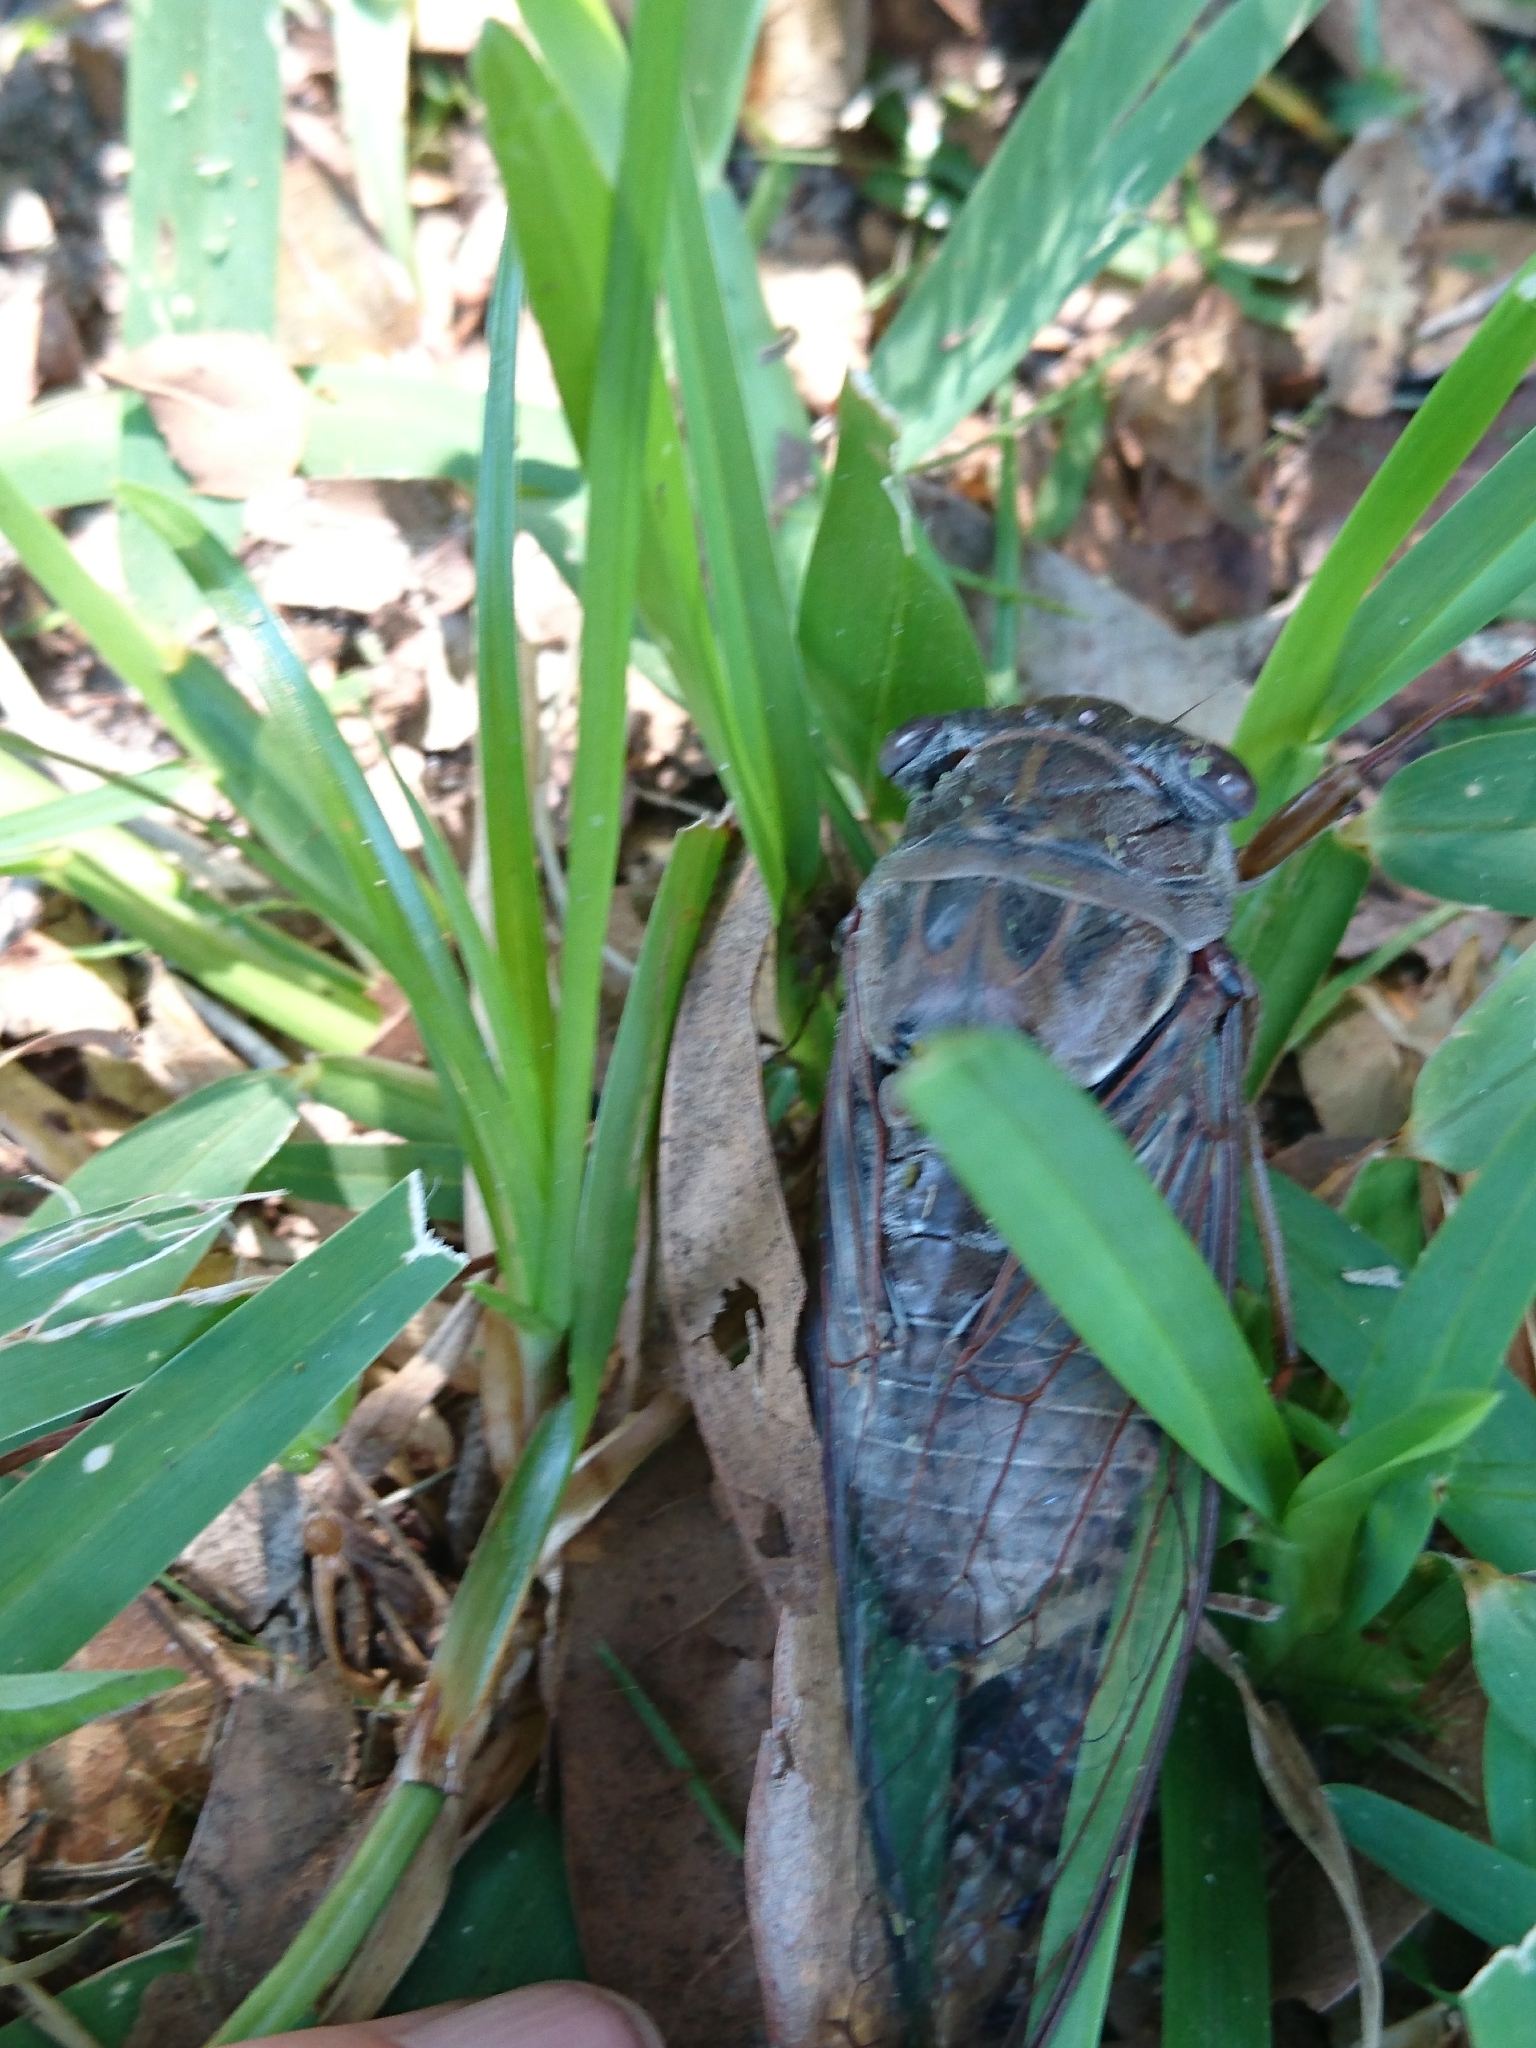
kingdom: Animalia
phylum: Arthropoda
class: Insecta
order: Hemiptera
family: Cicadidae
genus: Megatibicen
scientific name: Megatibicen resonans
